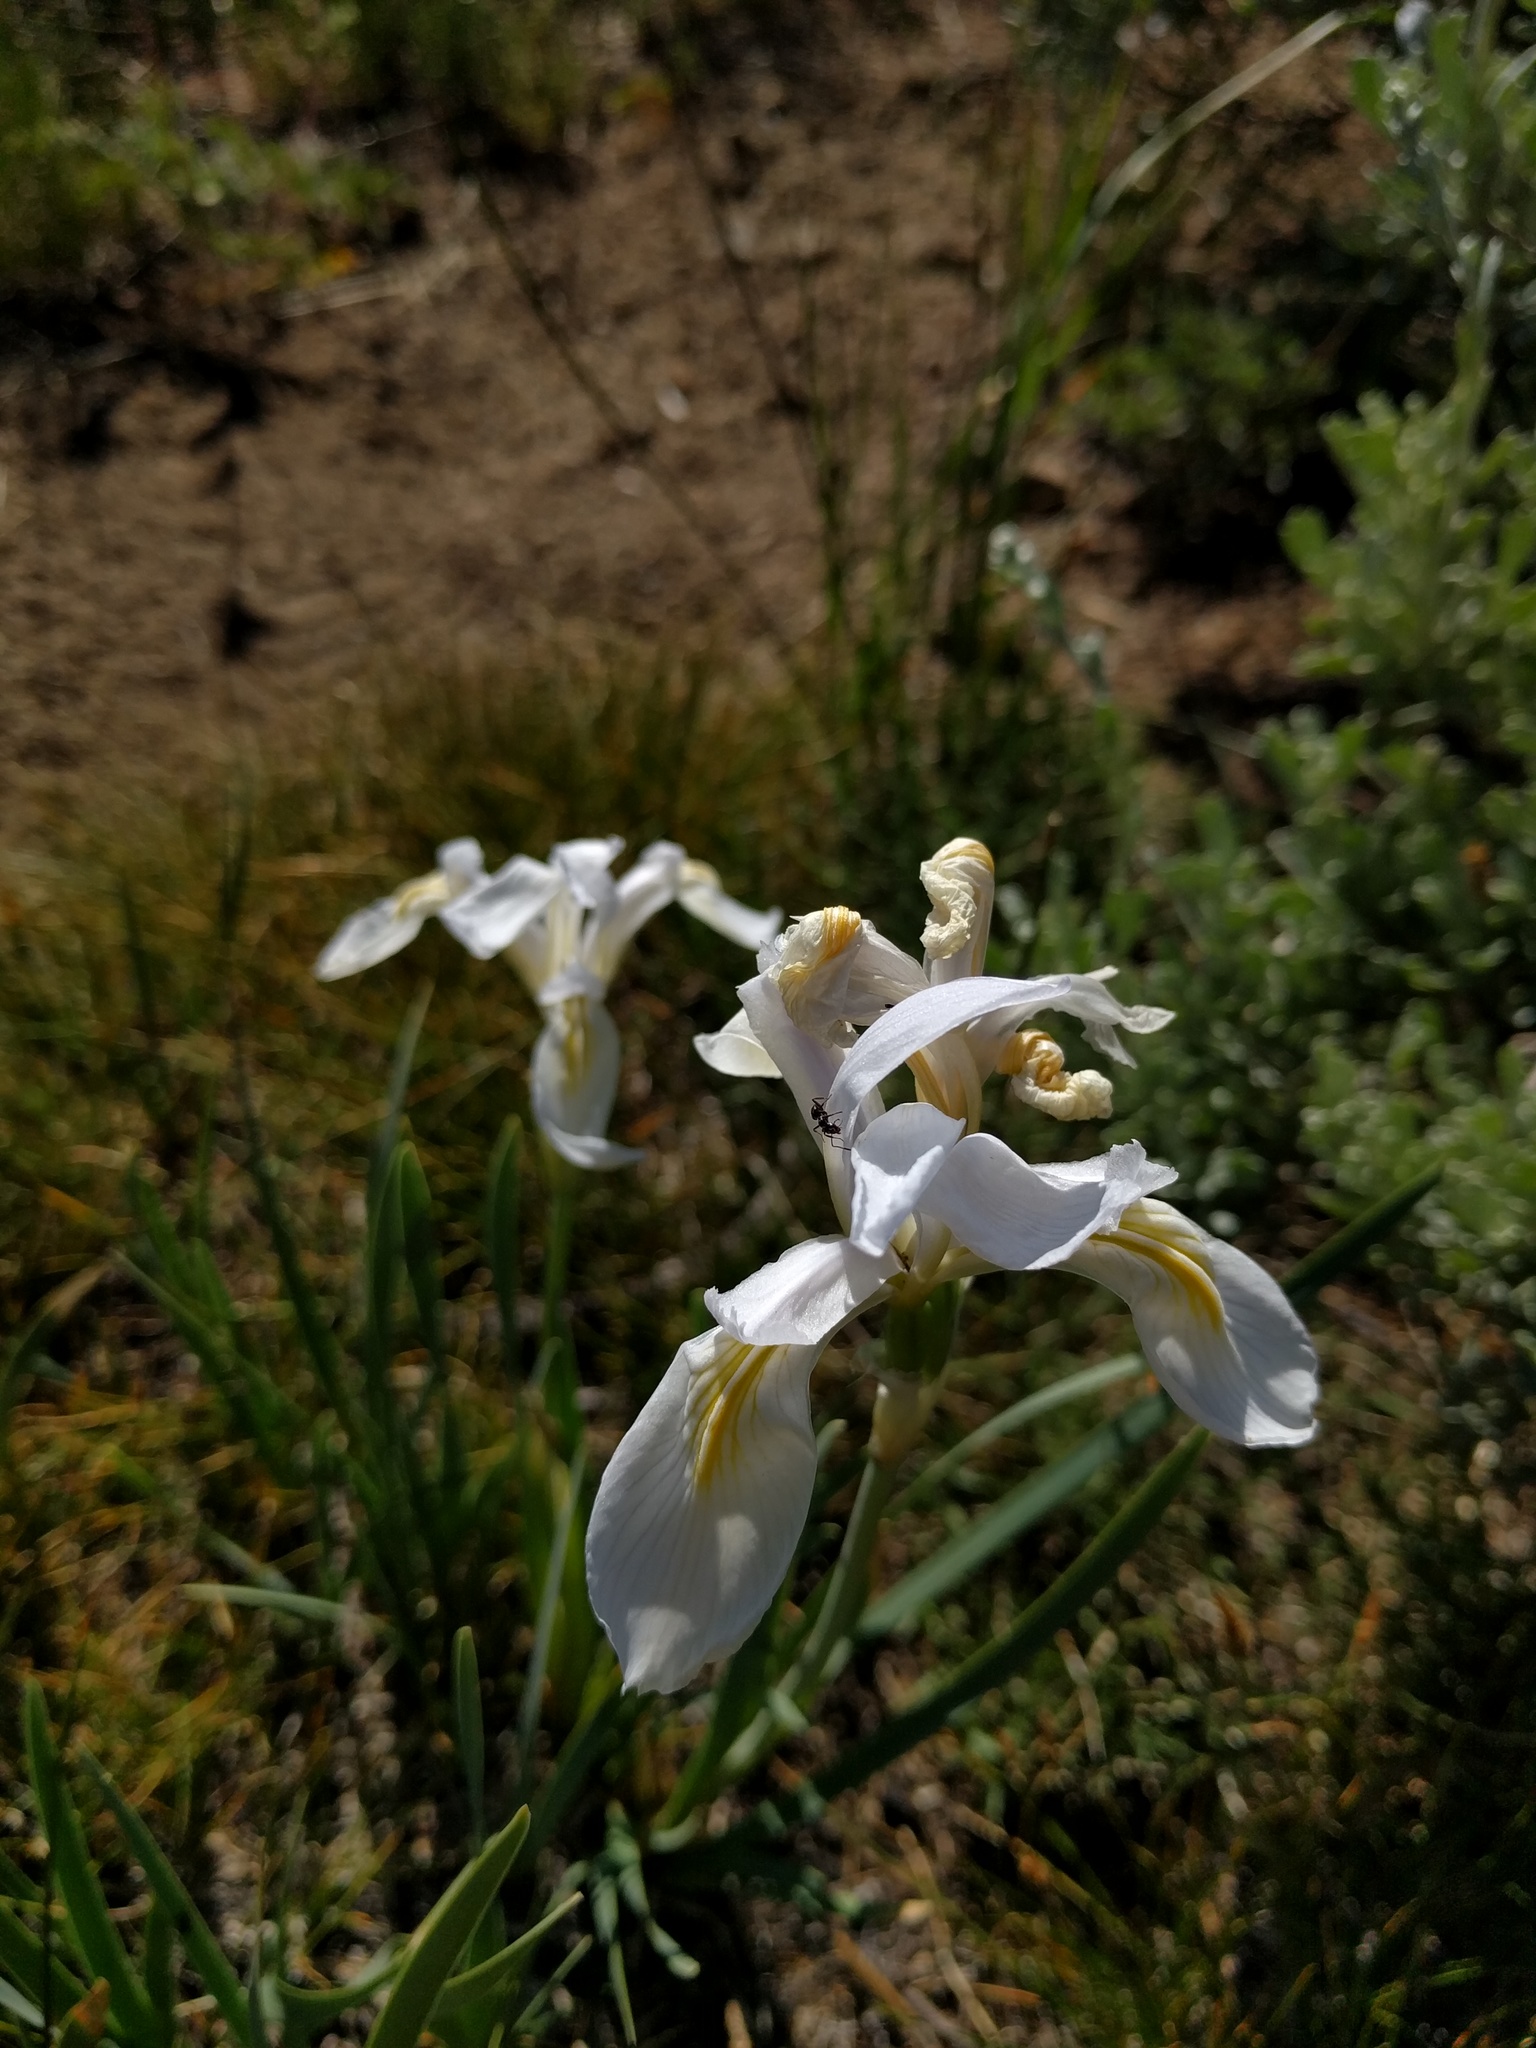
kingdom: Plantae
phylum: Tracheophyta
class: Liliopsida
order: Asparagales
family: Iridaceae
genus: Iris
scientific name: Iris missouriensis
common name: Rocky mountain iris
